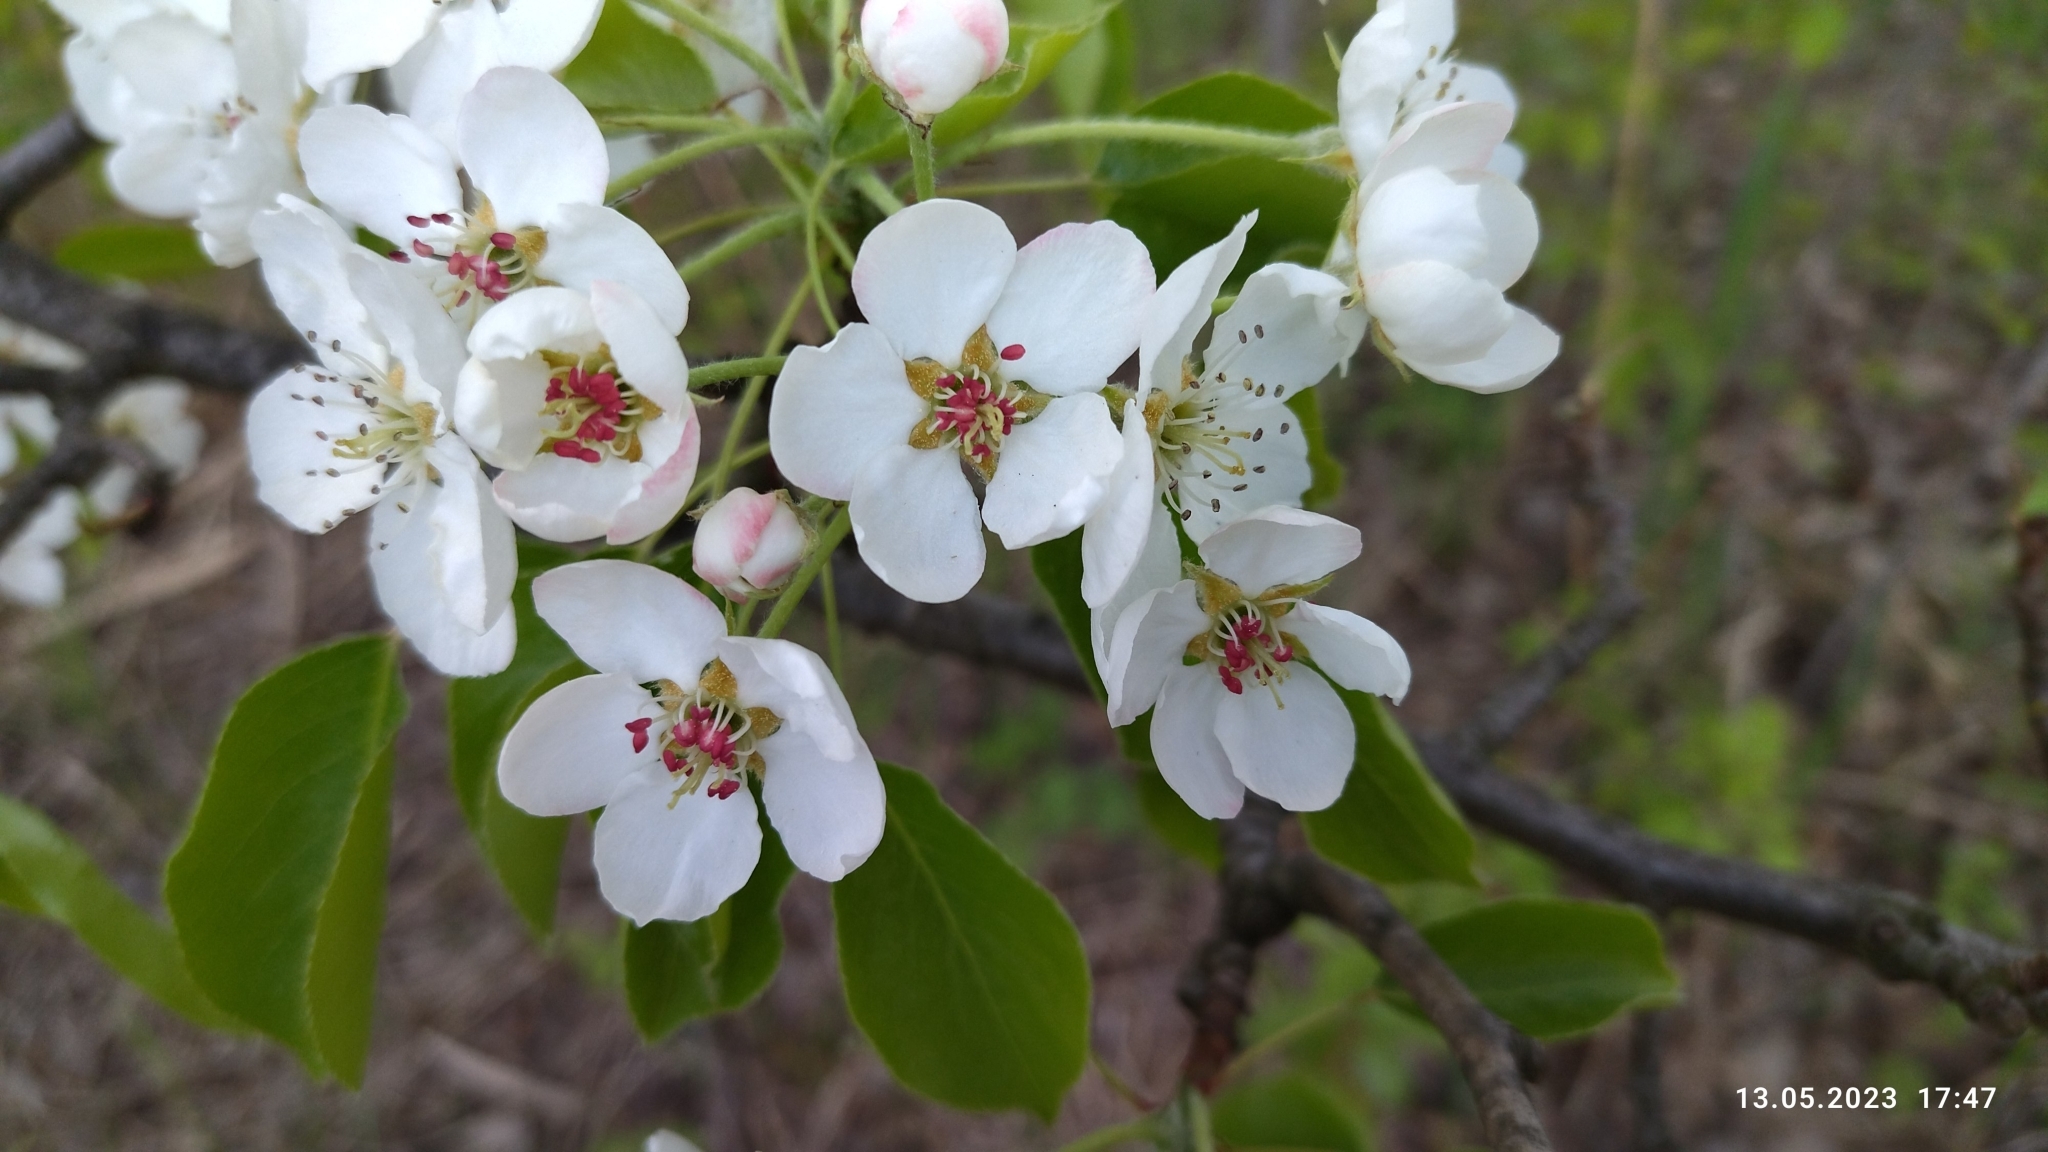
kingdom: Plantae
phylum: Tracheophyta
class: Magnoliopsida
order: Rosales
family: Rosaceae
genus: Pyrus
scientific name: Pyrus communis
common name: Pear
